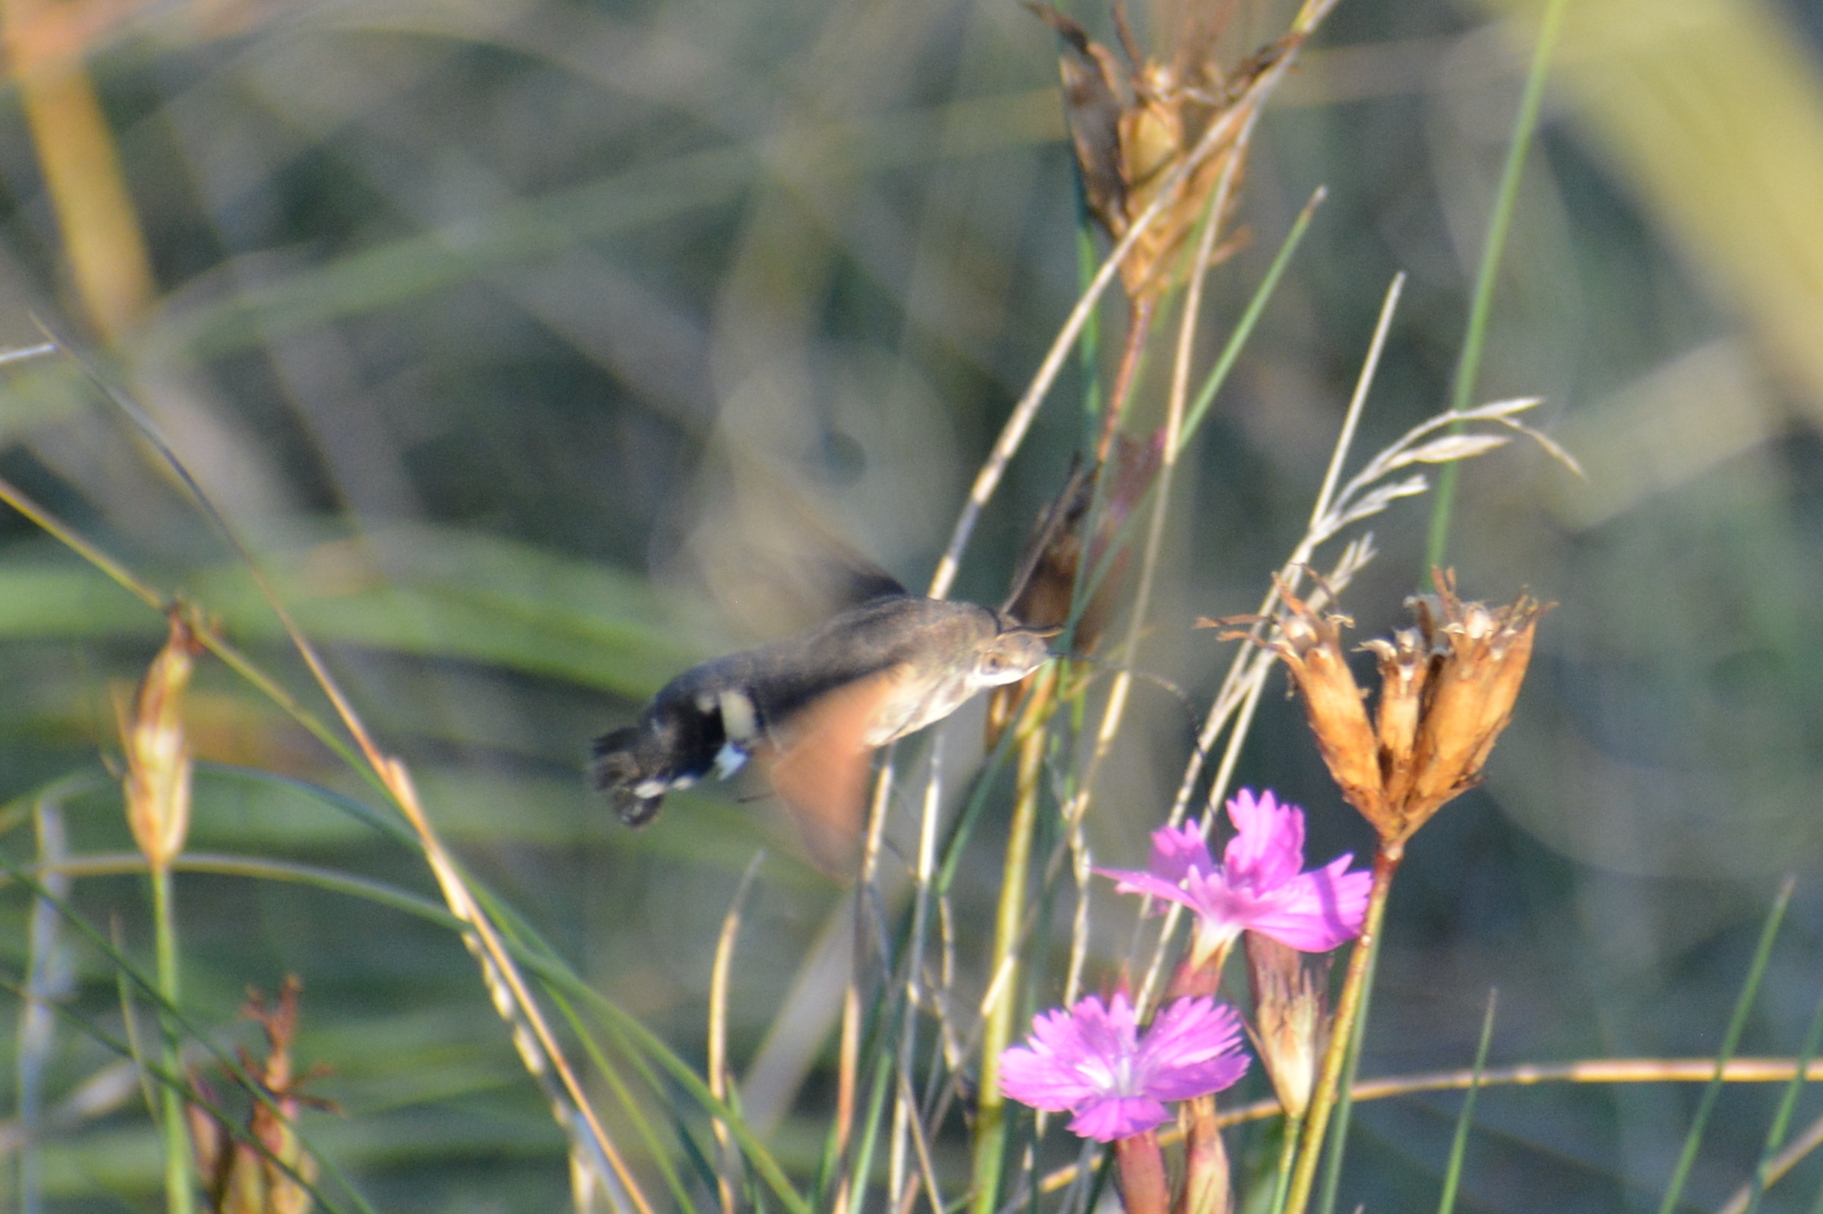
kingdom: Animalia
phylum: Arthropoda
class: Insecta
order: Lepidoptera
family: Sphingidae
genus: Macroglossum
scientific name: Macroglossum stellatarum
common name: Humming-bird hawk-moth
